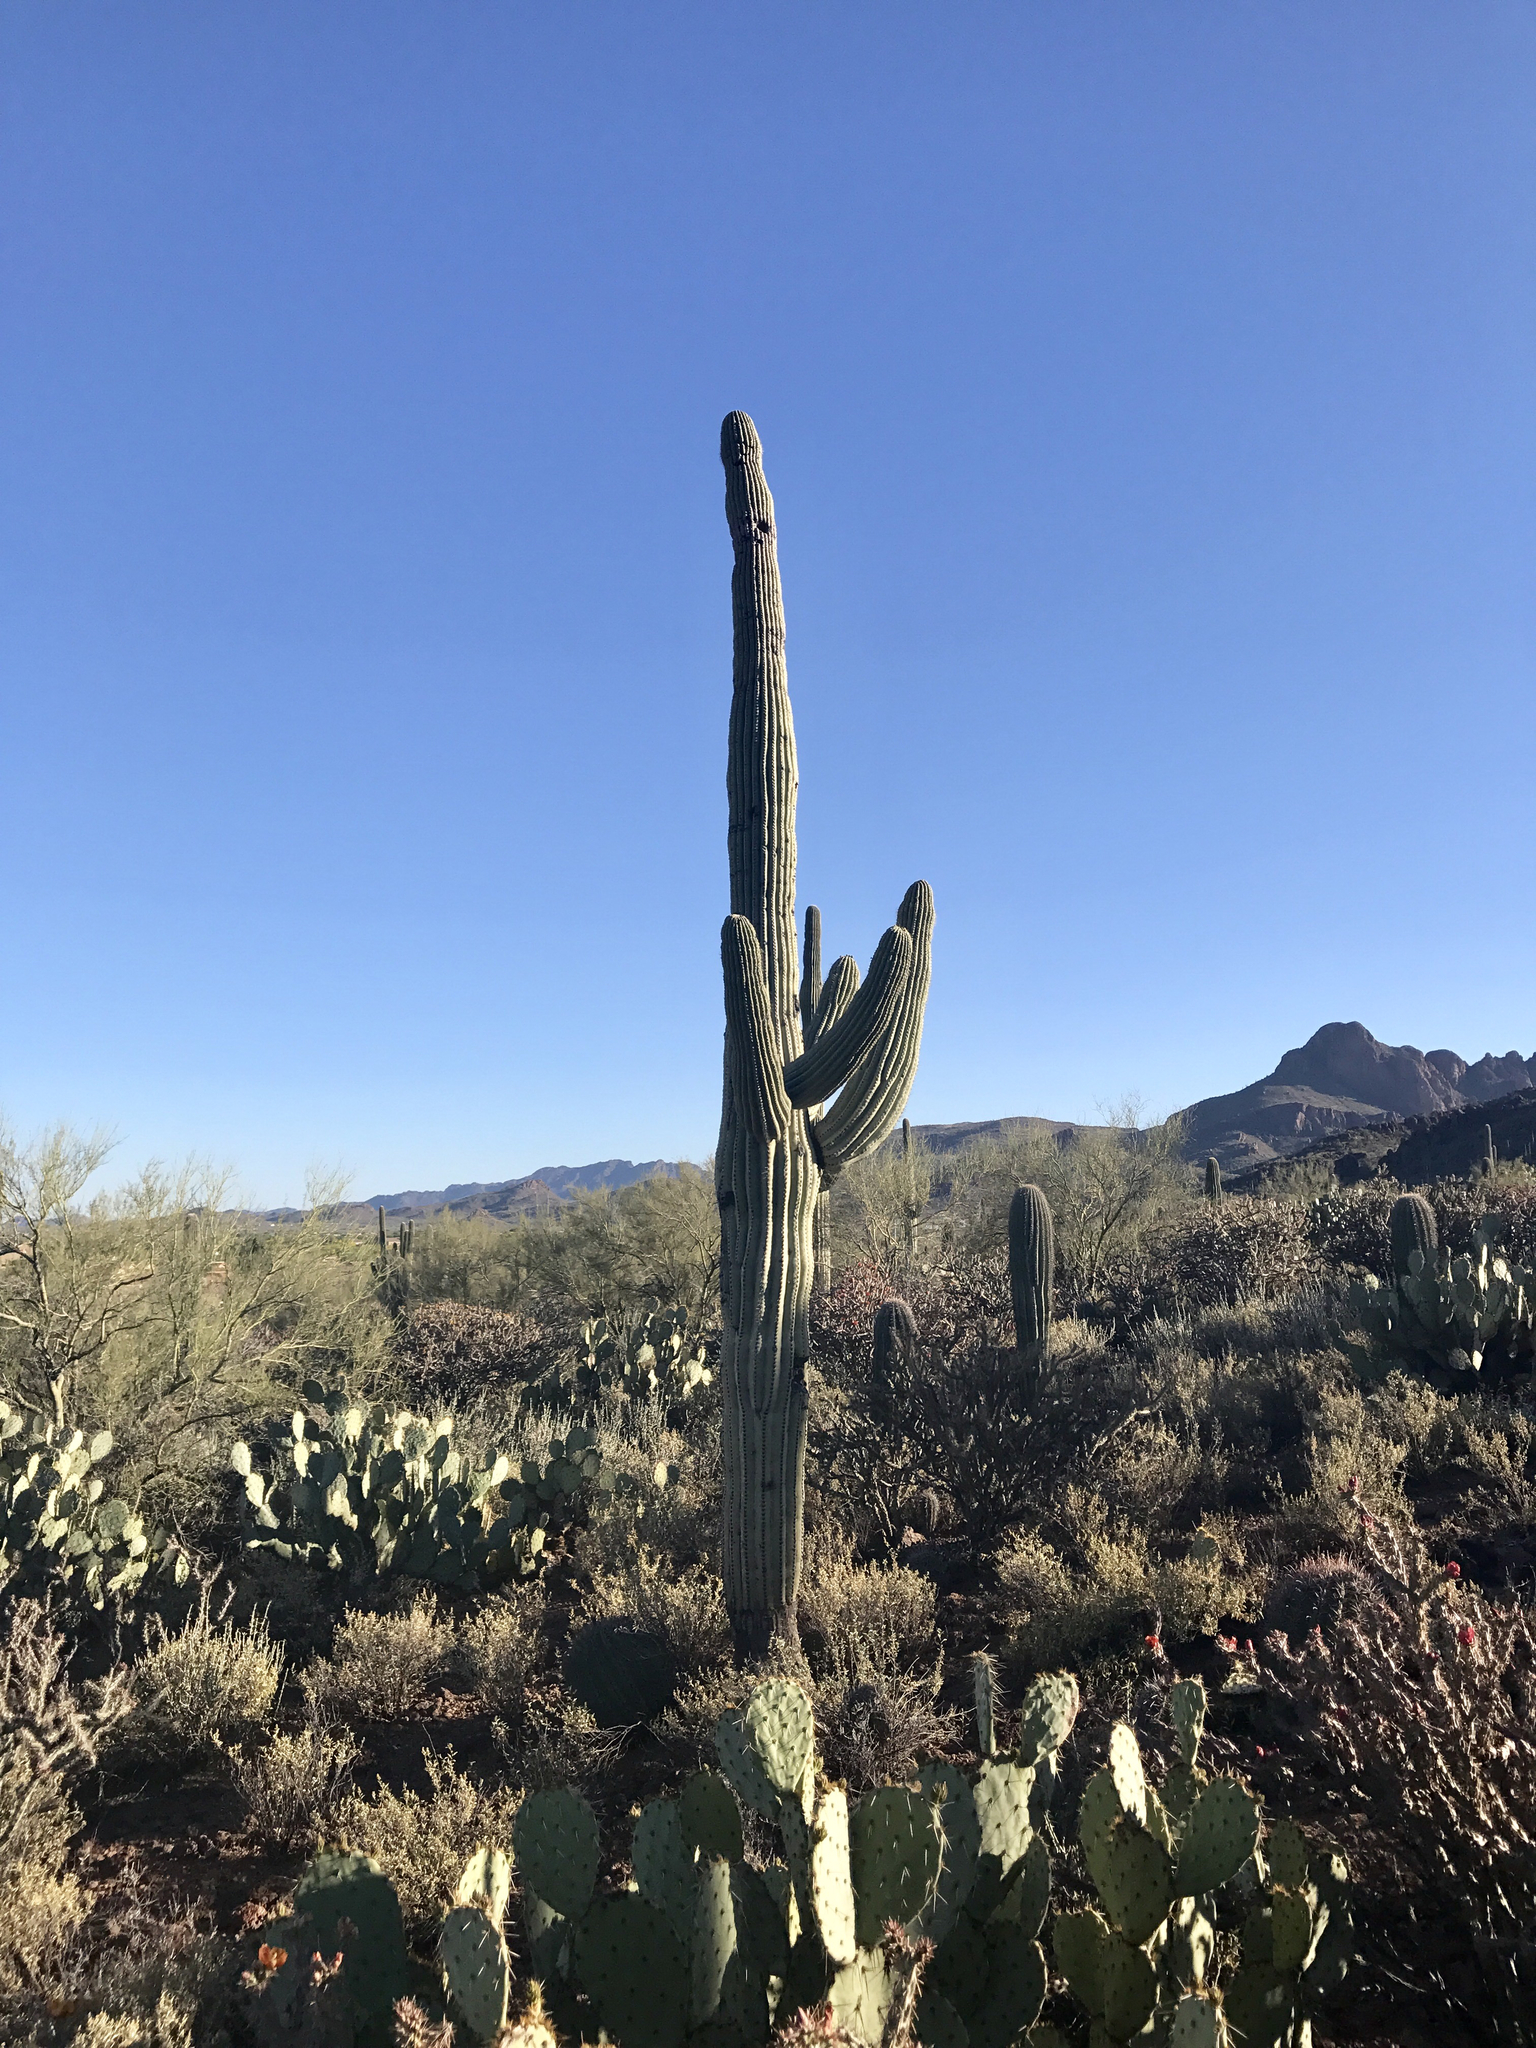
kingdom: Plantae
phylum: Tracheophyta
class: Magnoliopsida
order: Caryophyllales
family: Cactaceae
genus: Carnegiea
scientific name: Carnegiea gigantea
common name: Saguaro
